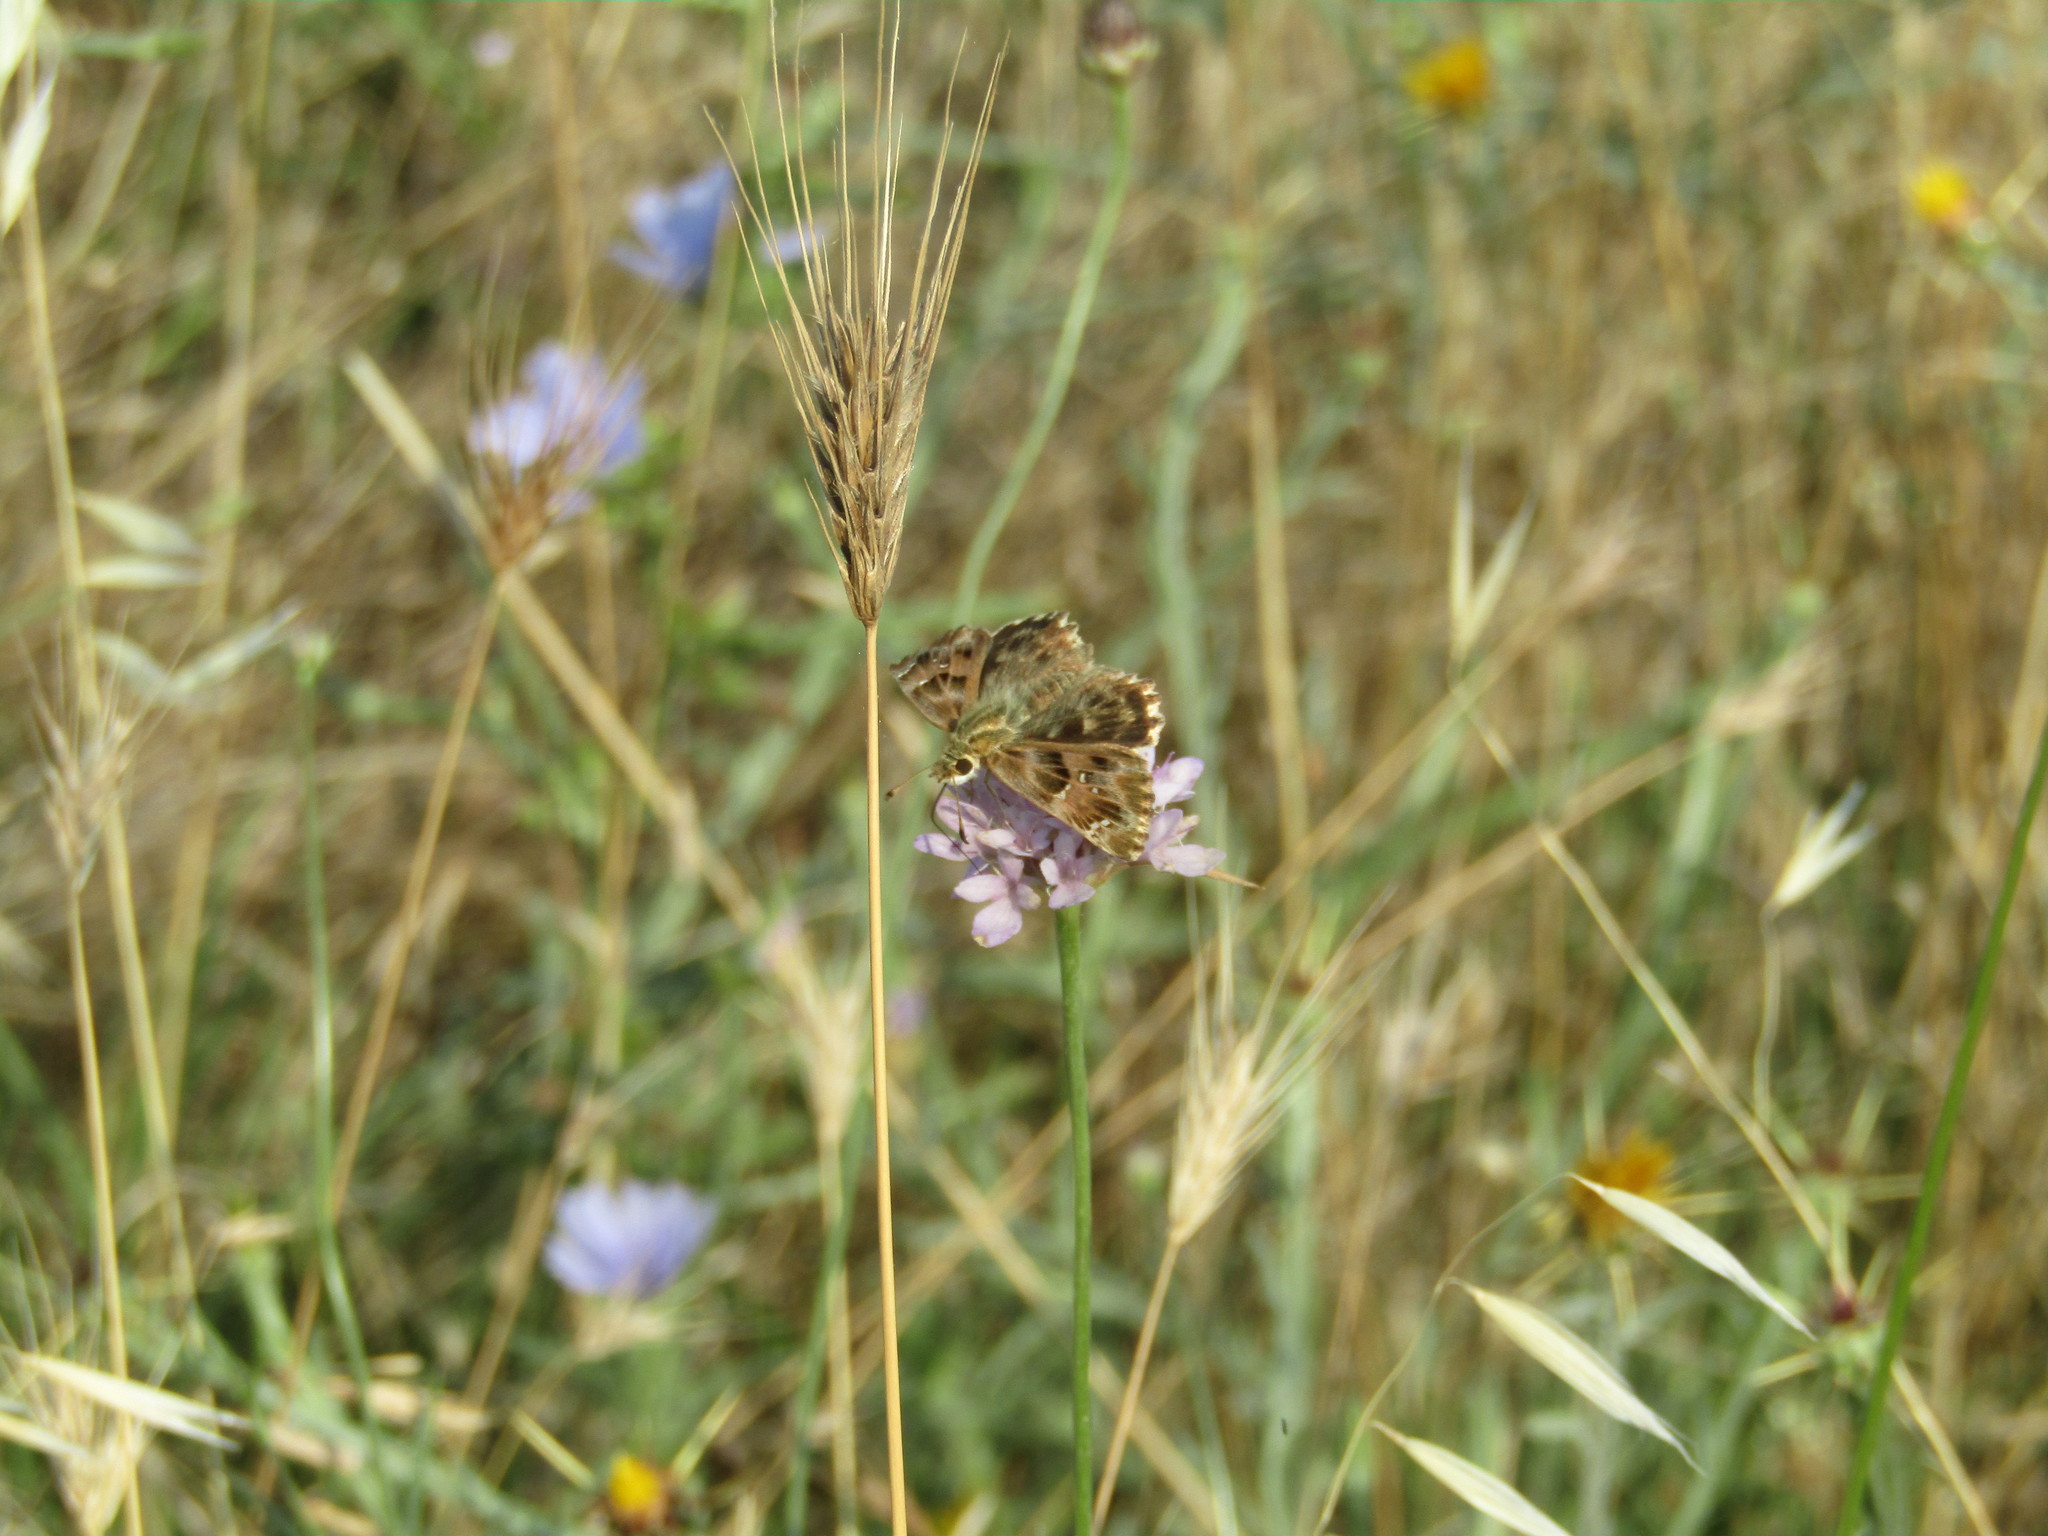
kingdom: Animalia
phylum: Arthropoda
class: Insecta
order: Lepidoptera
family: Hesperiidae
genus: Carcharodus
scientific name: Carcharodus alceae
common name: Mallow skipper
